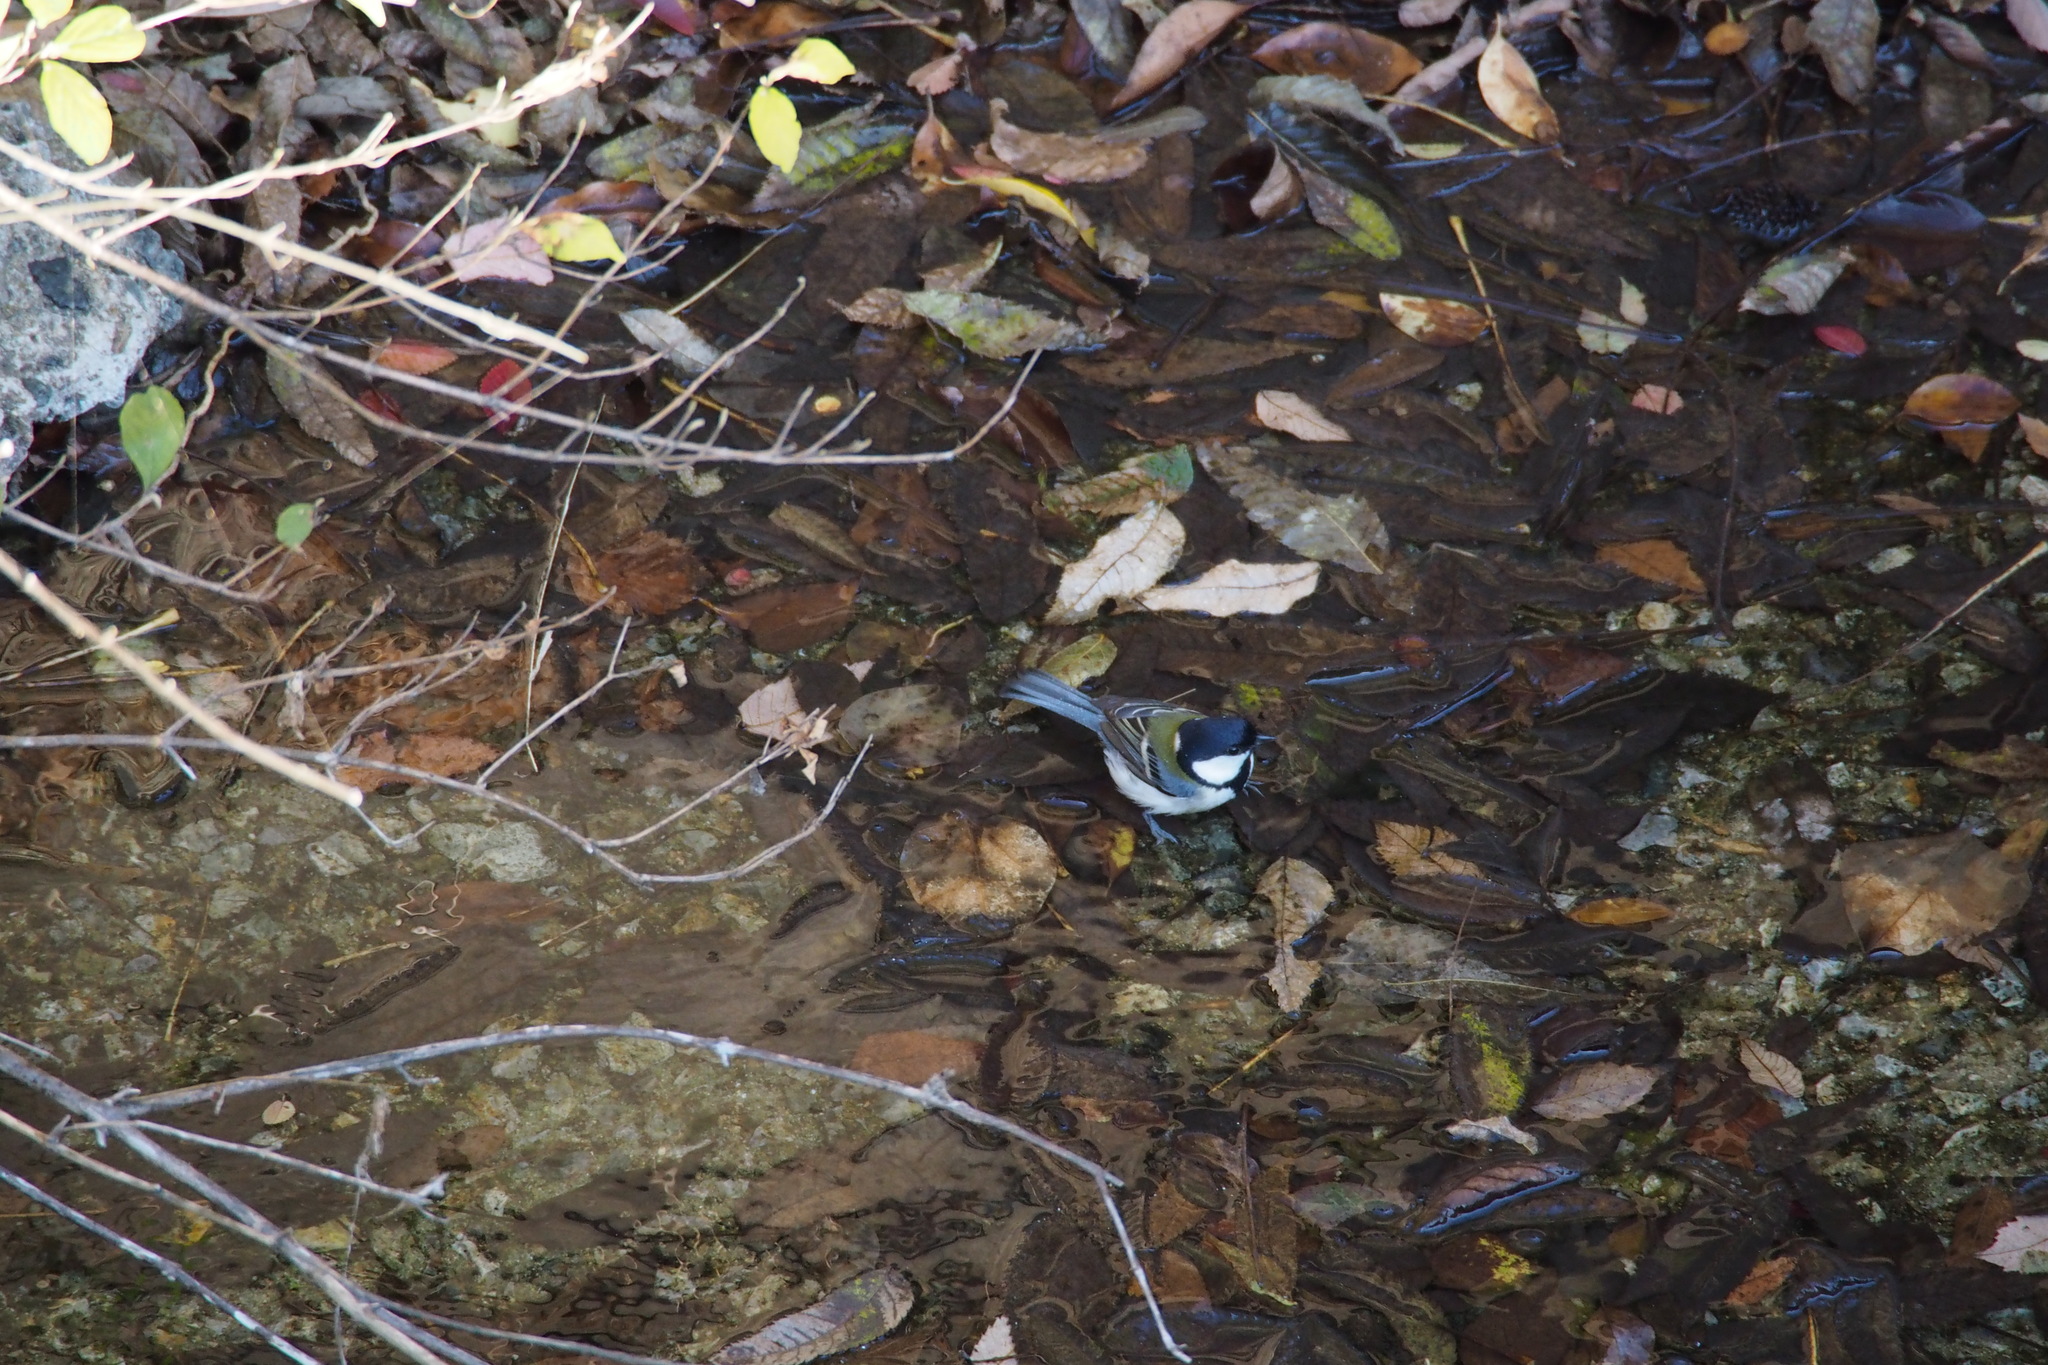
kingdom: Animalia
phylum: Chordata
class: Aves
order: Passeriformes
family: Paridae
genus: Parus
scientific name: Parus minor
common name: Japanese tit
